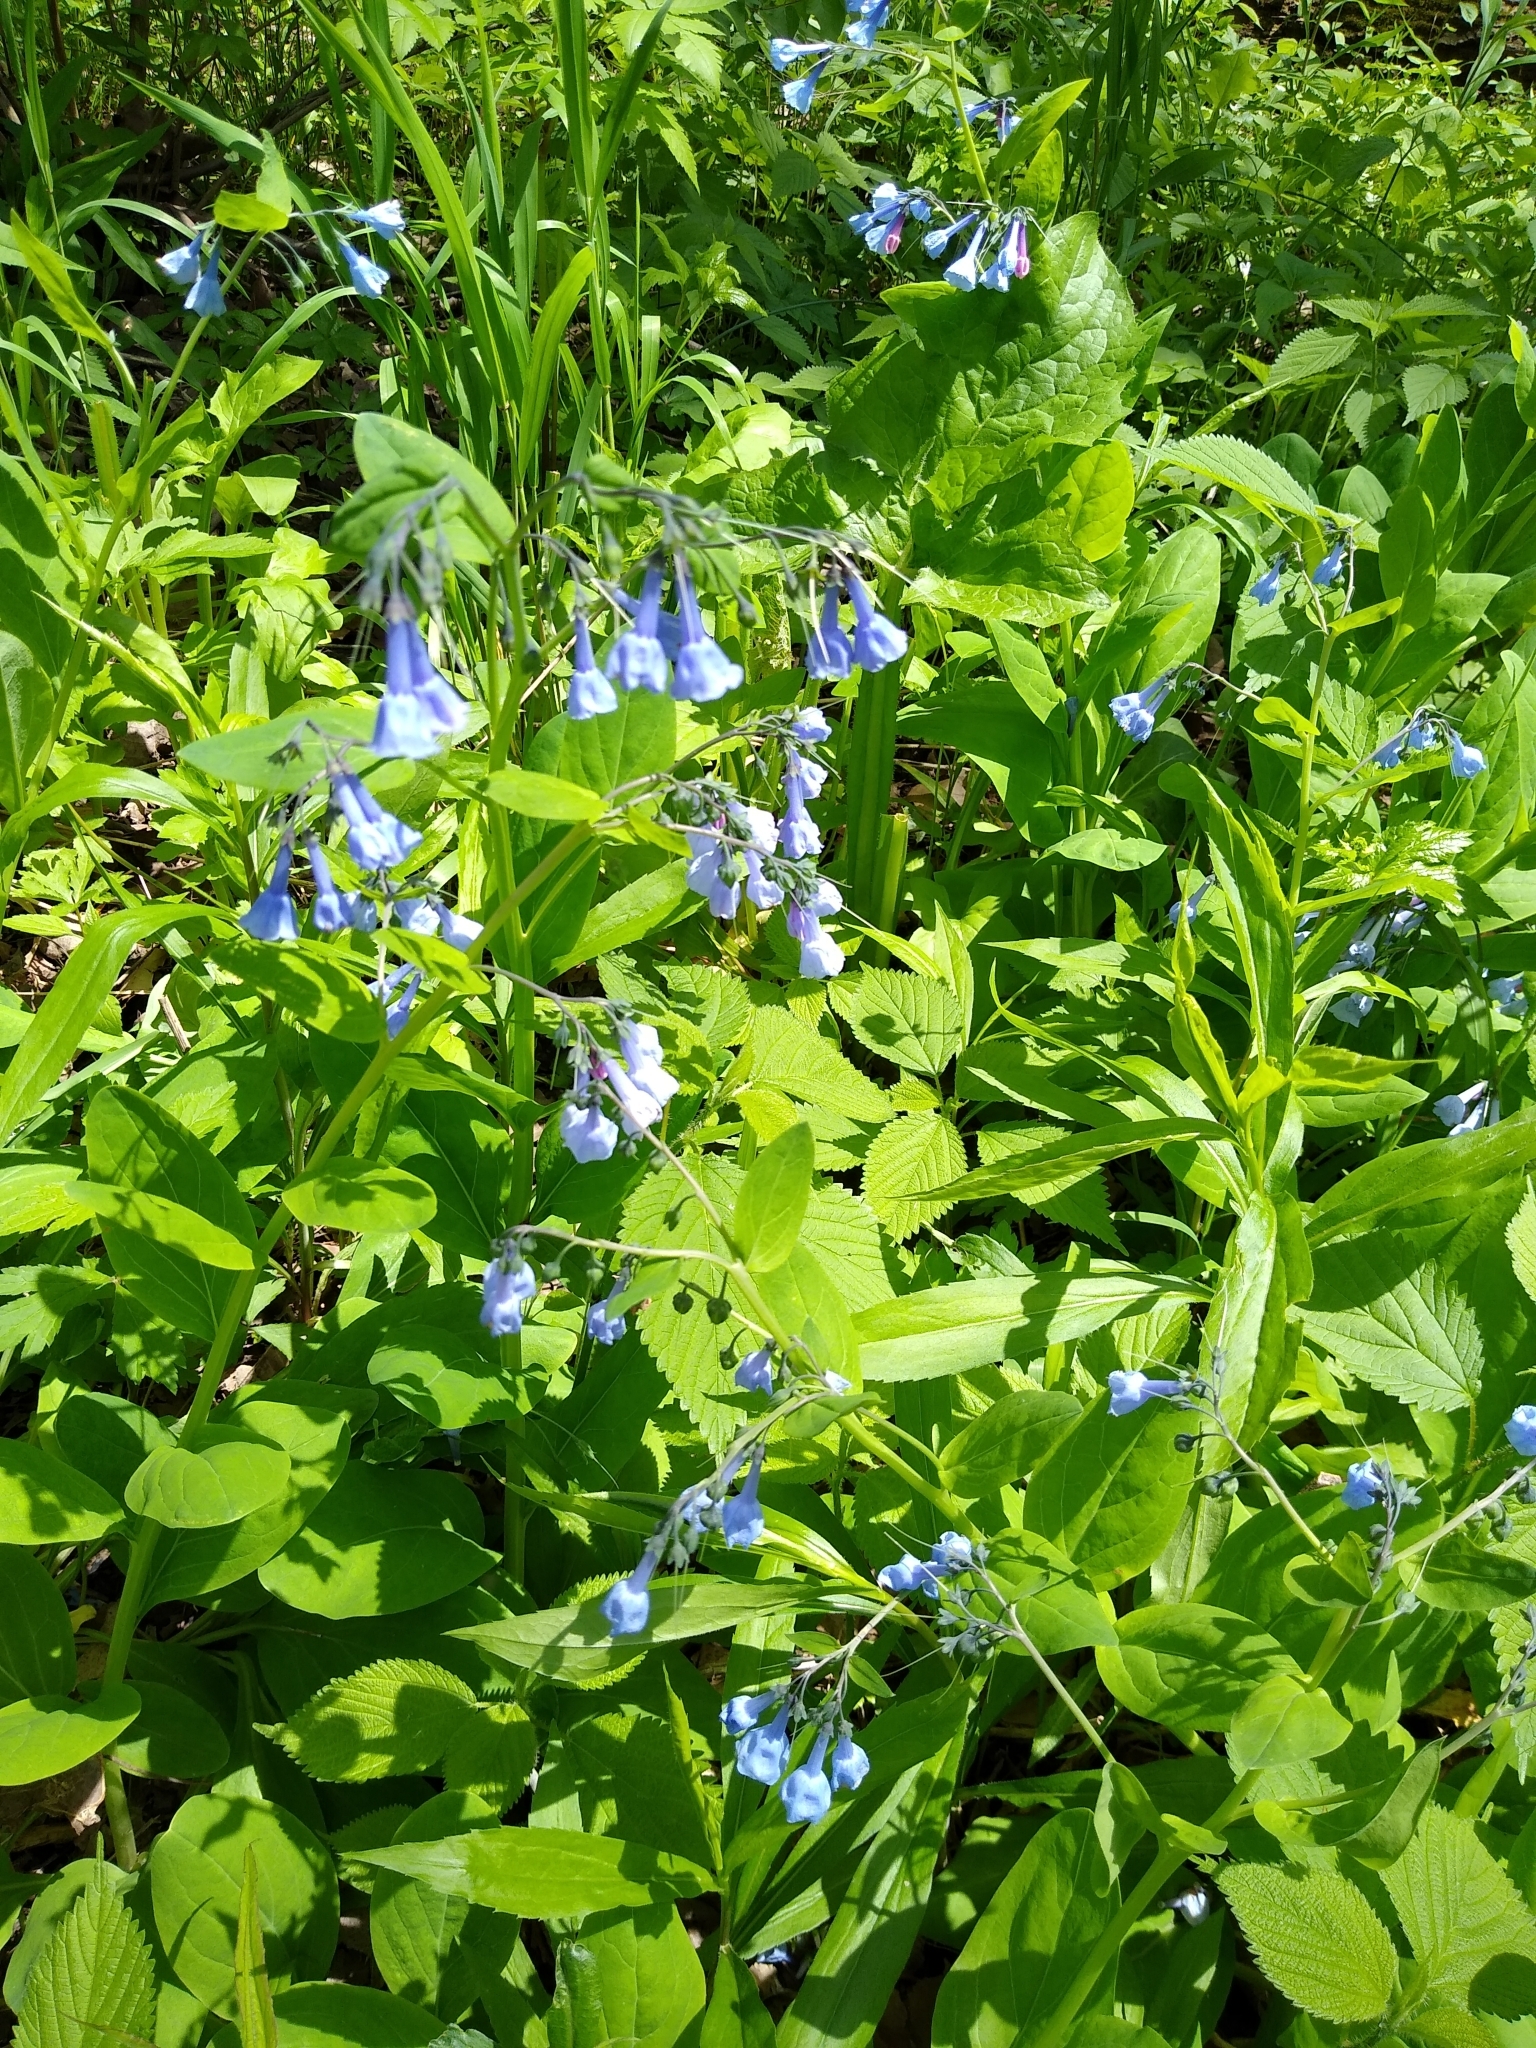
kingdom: Plantae
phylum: Tracheophyta
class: Magnoliopsida
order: Boraginales
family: Boraginaceae
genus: Mertensia
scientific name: Mertensia virginica
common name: Virginia bluebells
